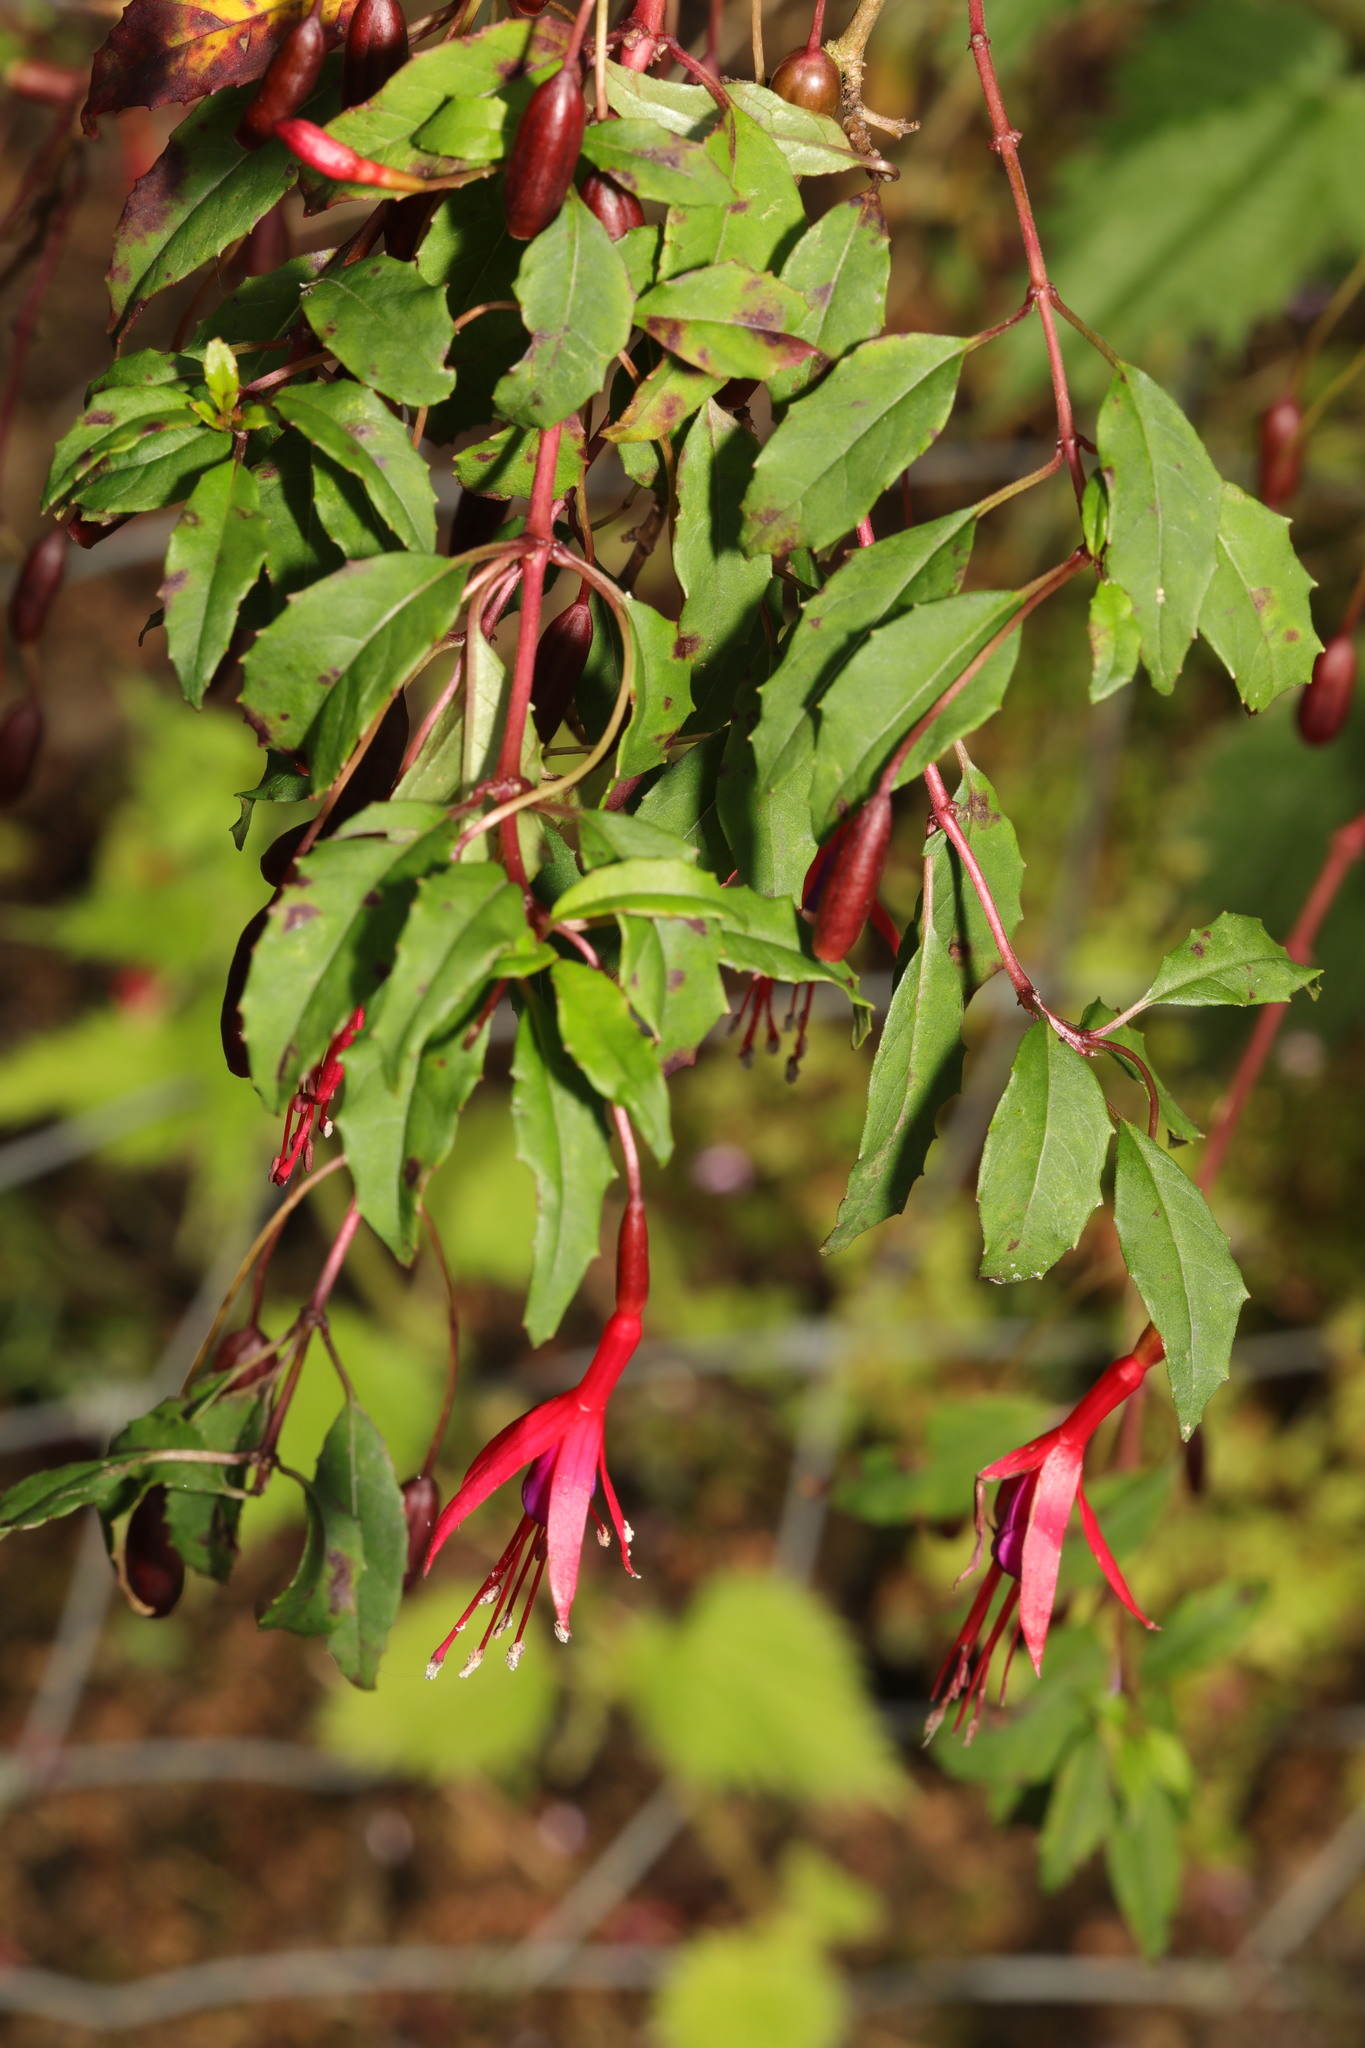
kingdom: Plantae
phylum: Tracheophyta
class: Magnoliopsida
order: Myrtales
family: Onagraceae
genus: Fuchsia
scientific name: Fuchsia magellanica
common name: Hardy fuchsia
